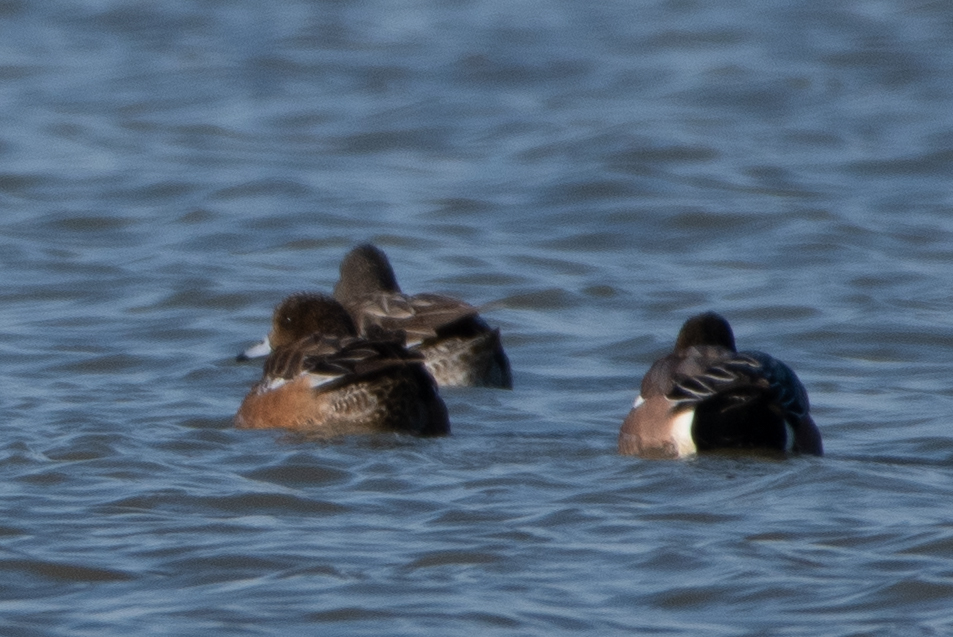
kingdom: Animalia
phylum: Chordata
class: Aves
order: Anseriformes
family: Anatidae
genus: Mareca
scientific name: Mareca americana
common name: American wigeon
